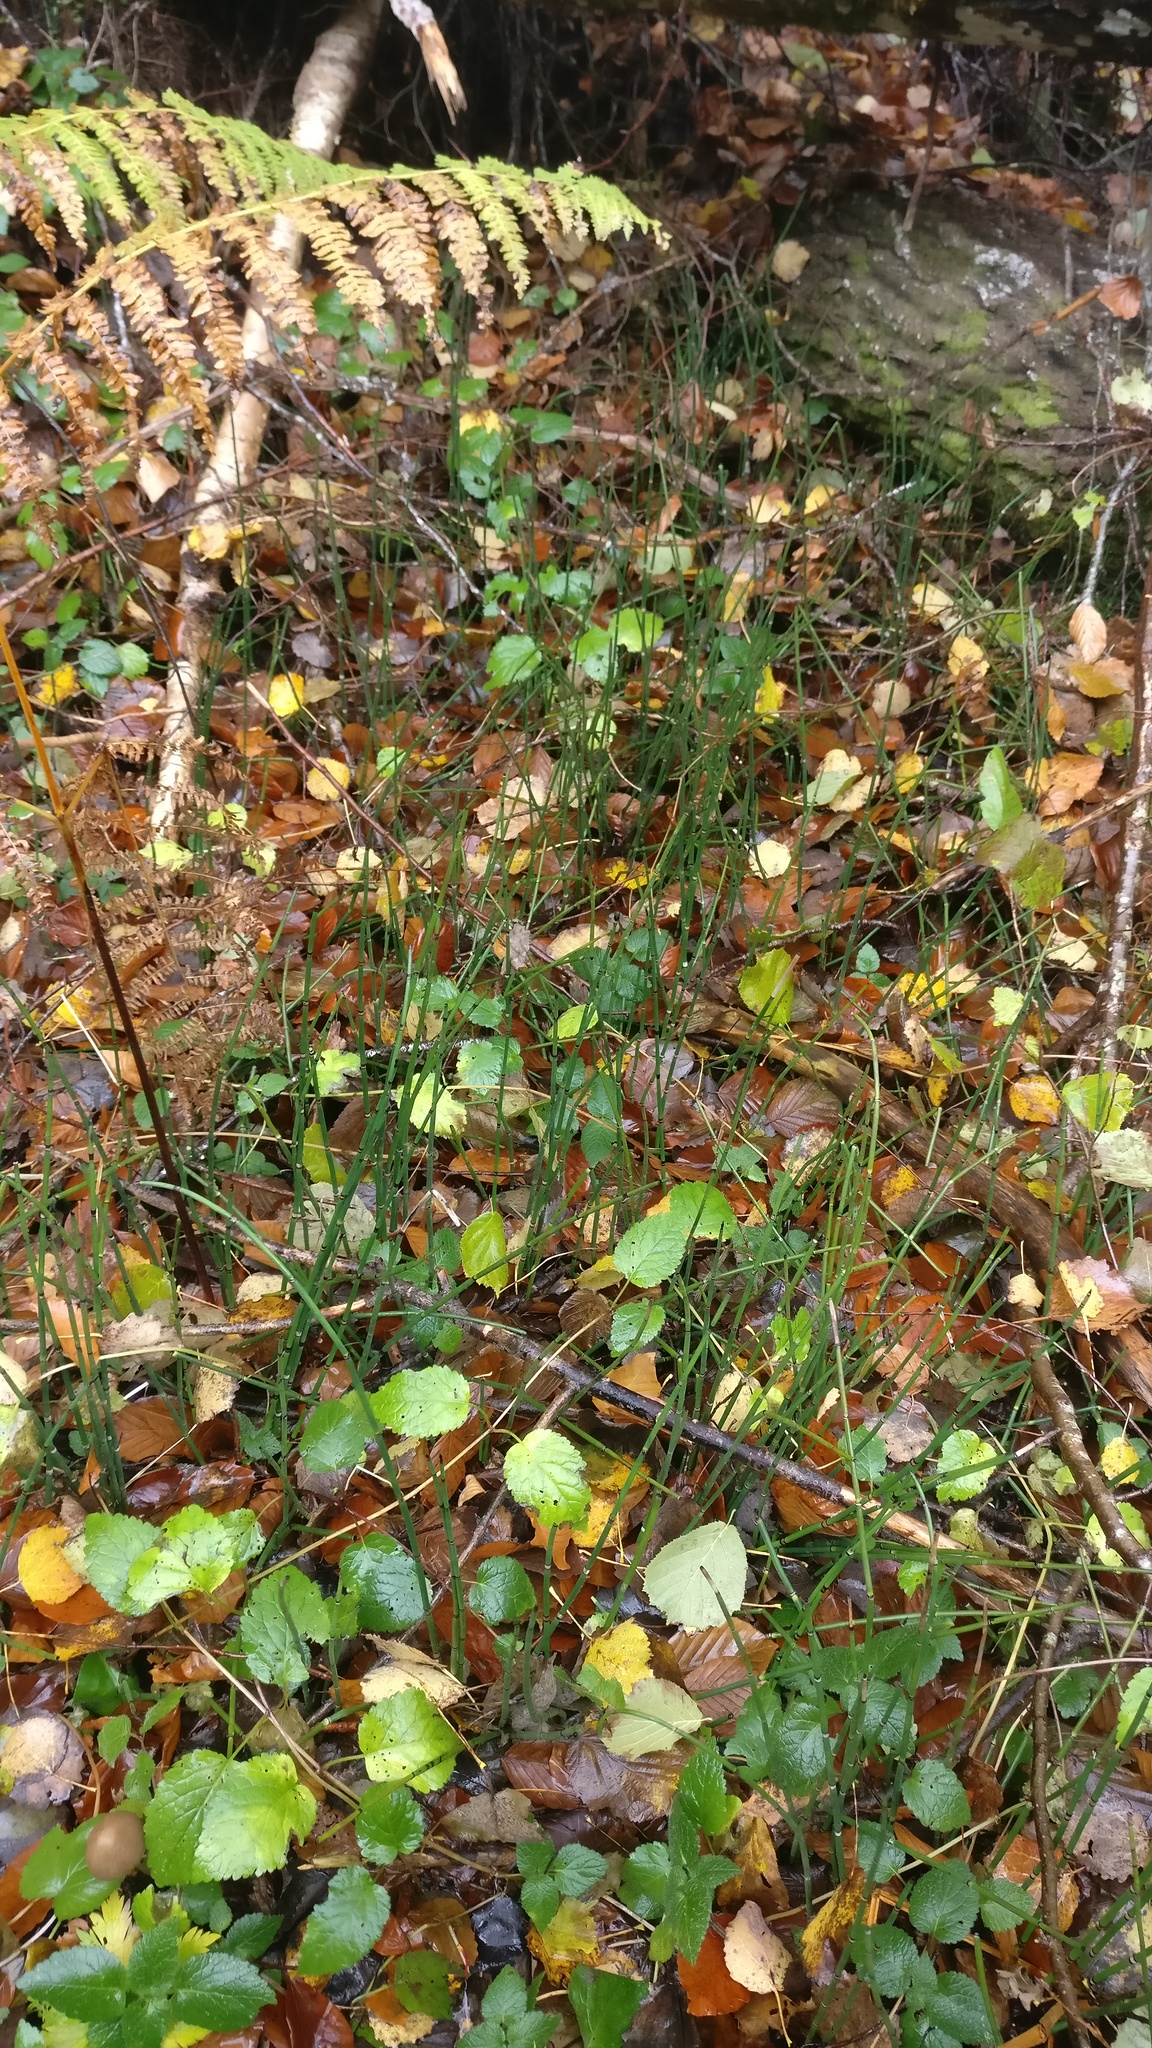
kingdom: Plantae
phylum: Tracheophyta
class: Polypodiopsida
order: Equisetales
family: Equisetaceae
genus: Equisetum
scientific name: Equisetum hyemale
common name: Rough horsetail
